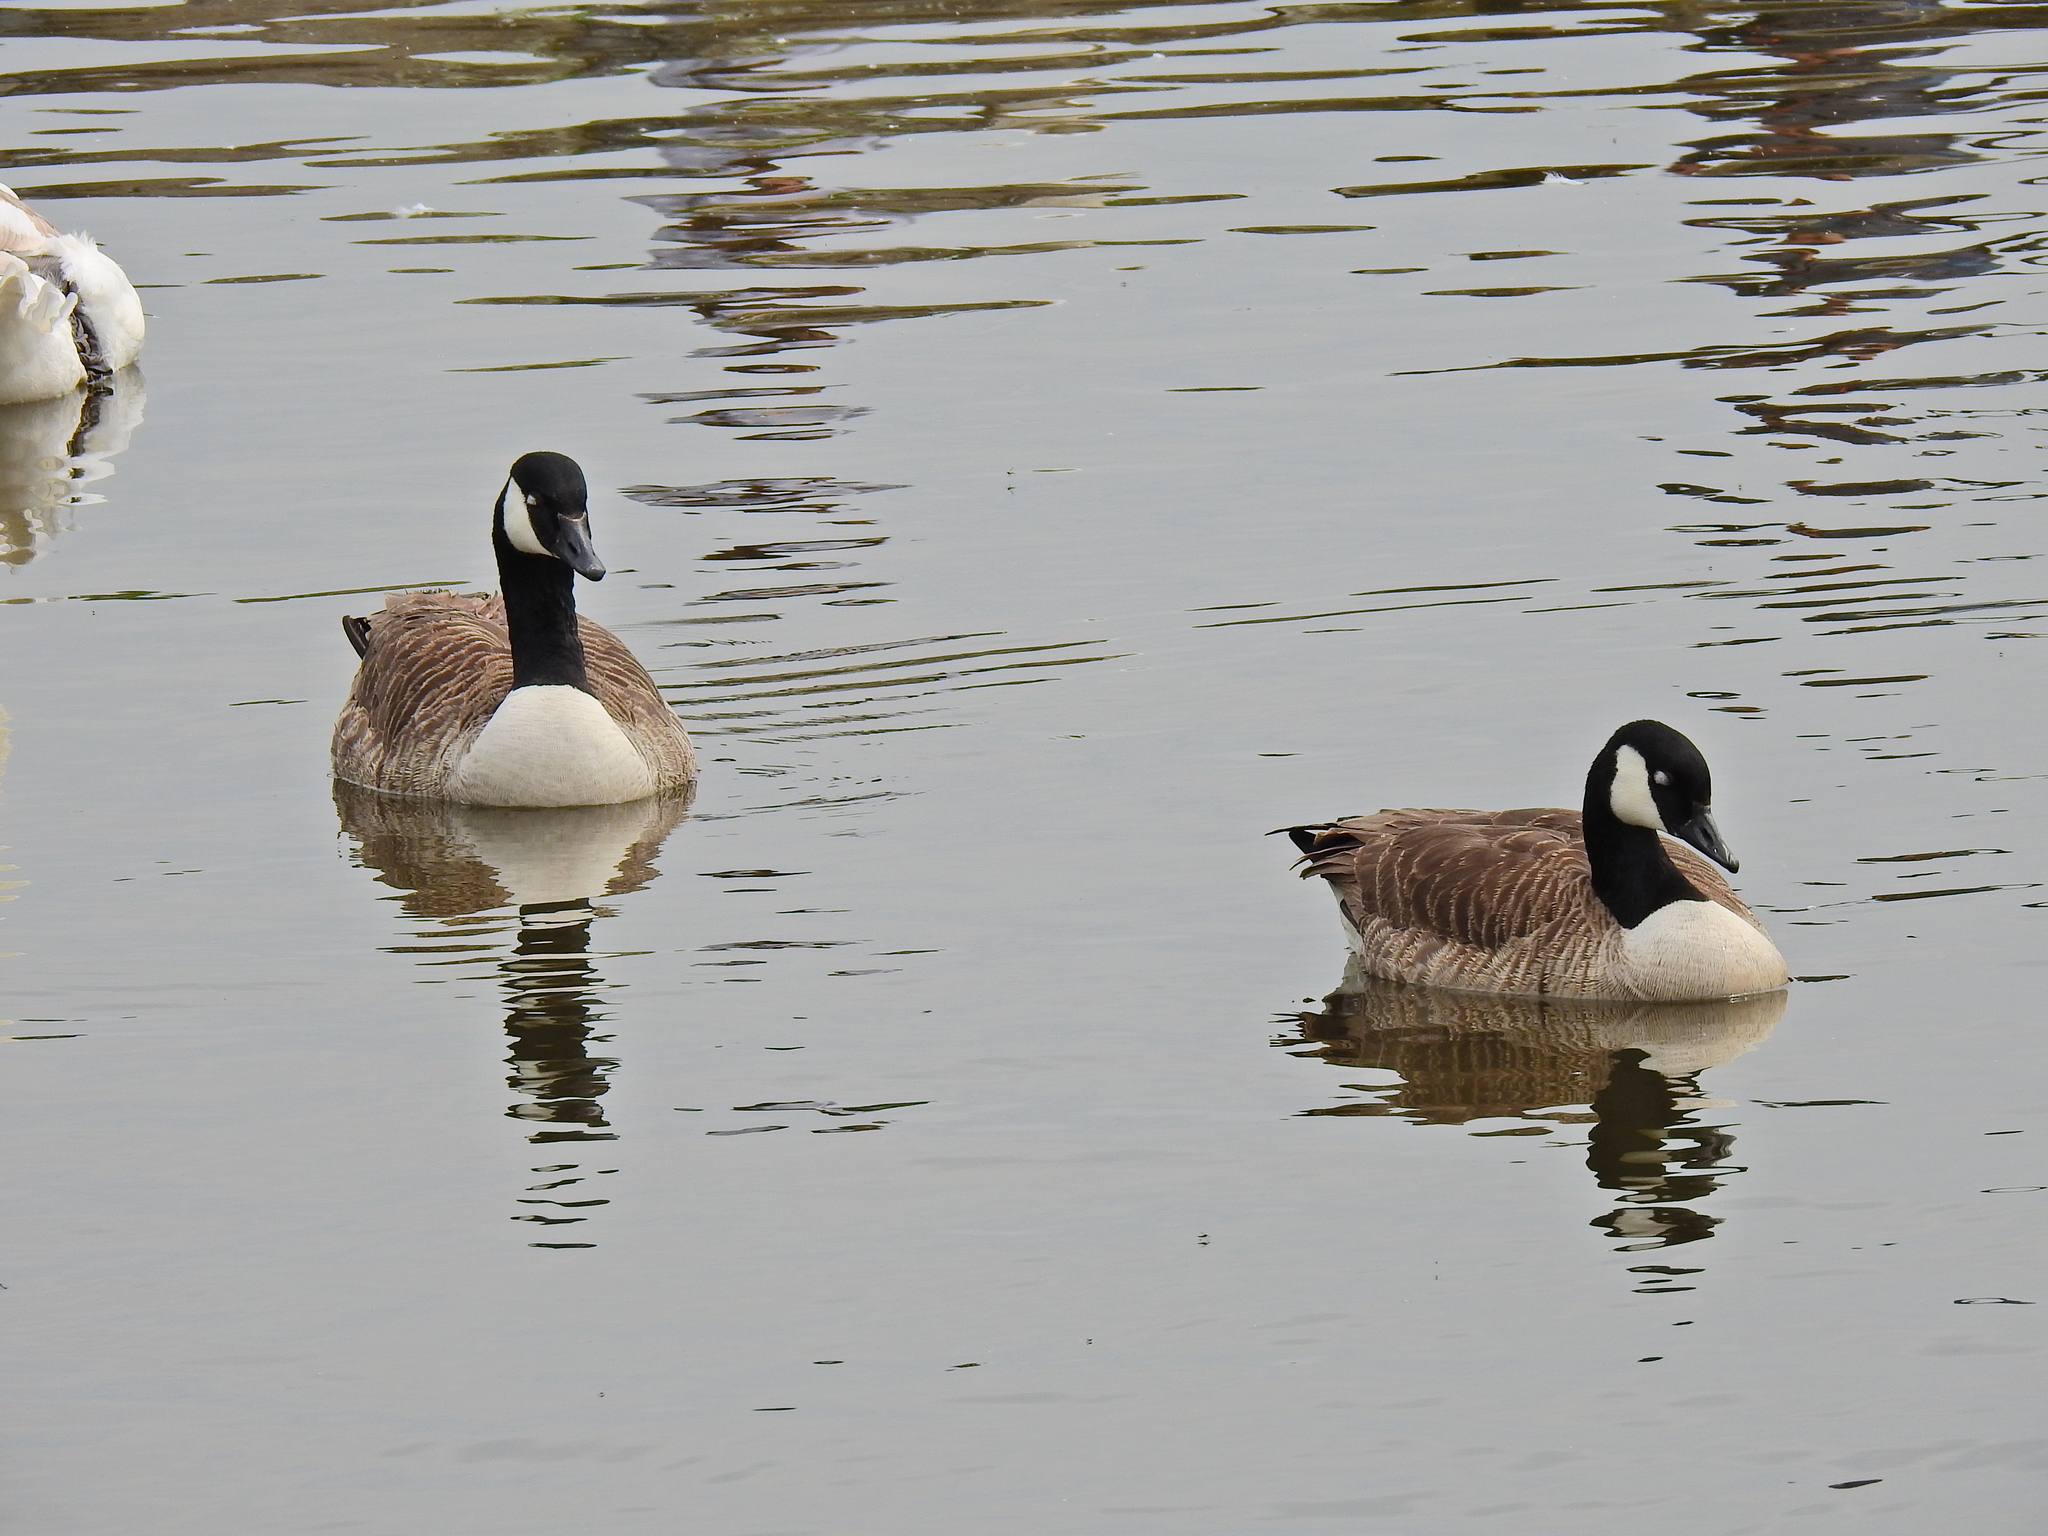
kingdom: Animalia
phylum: Chordata
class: Aves
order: Anseriformes
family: Anatidae
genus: Branta
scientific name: Branta canadensis
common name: Canada goose
